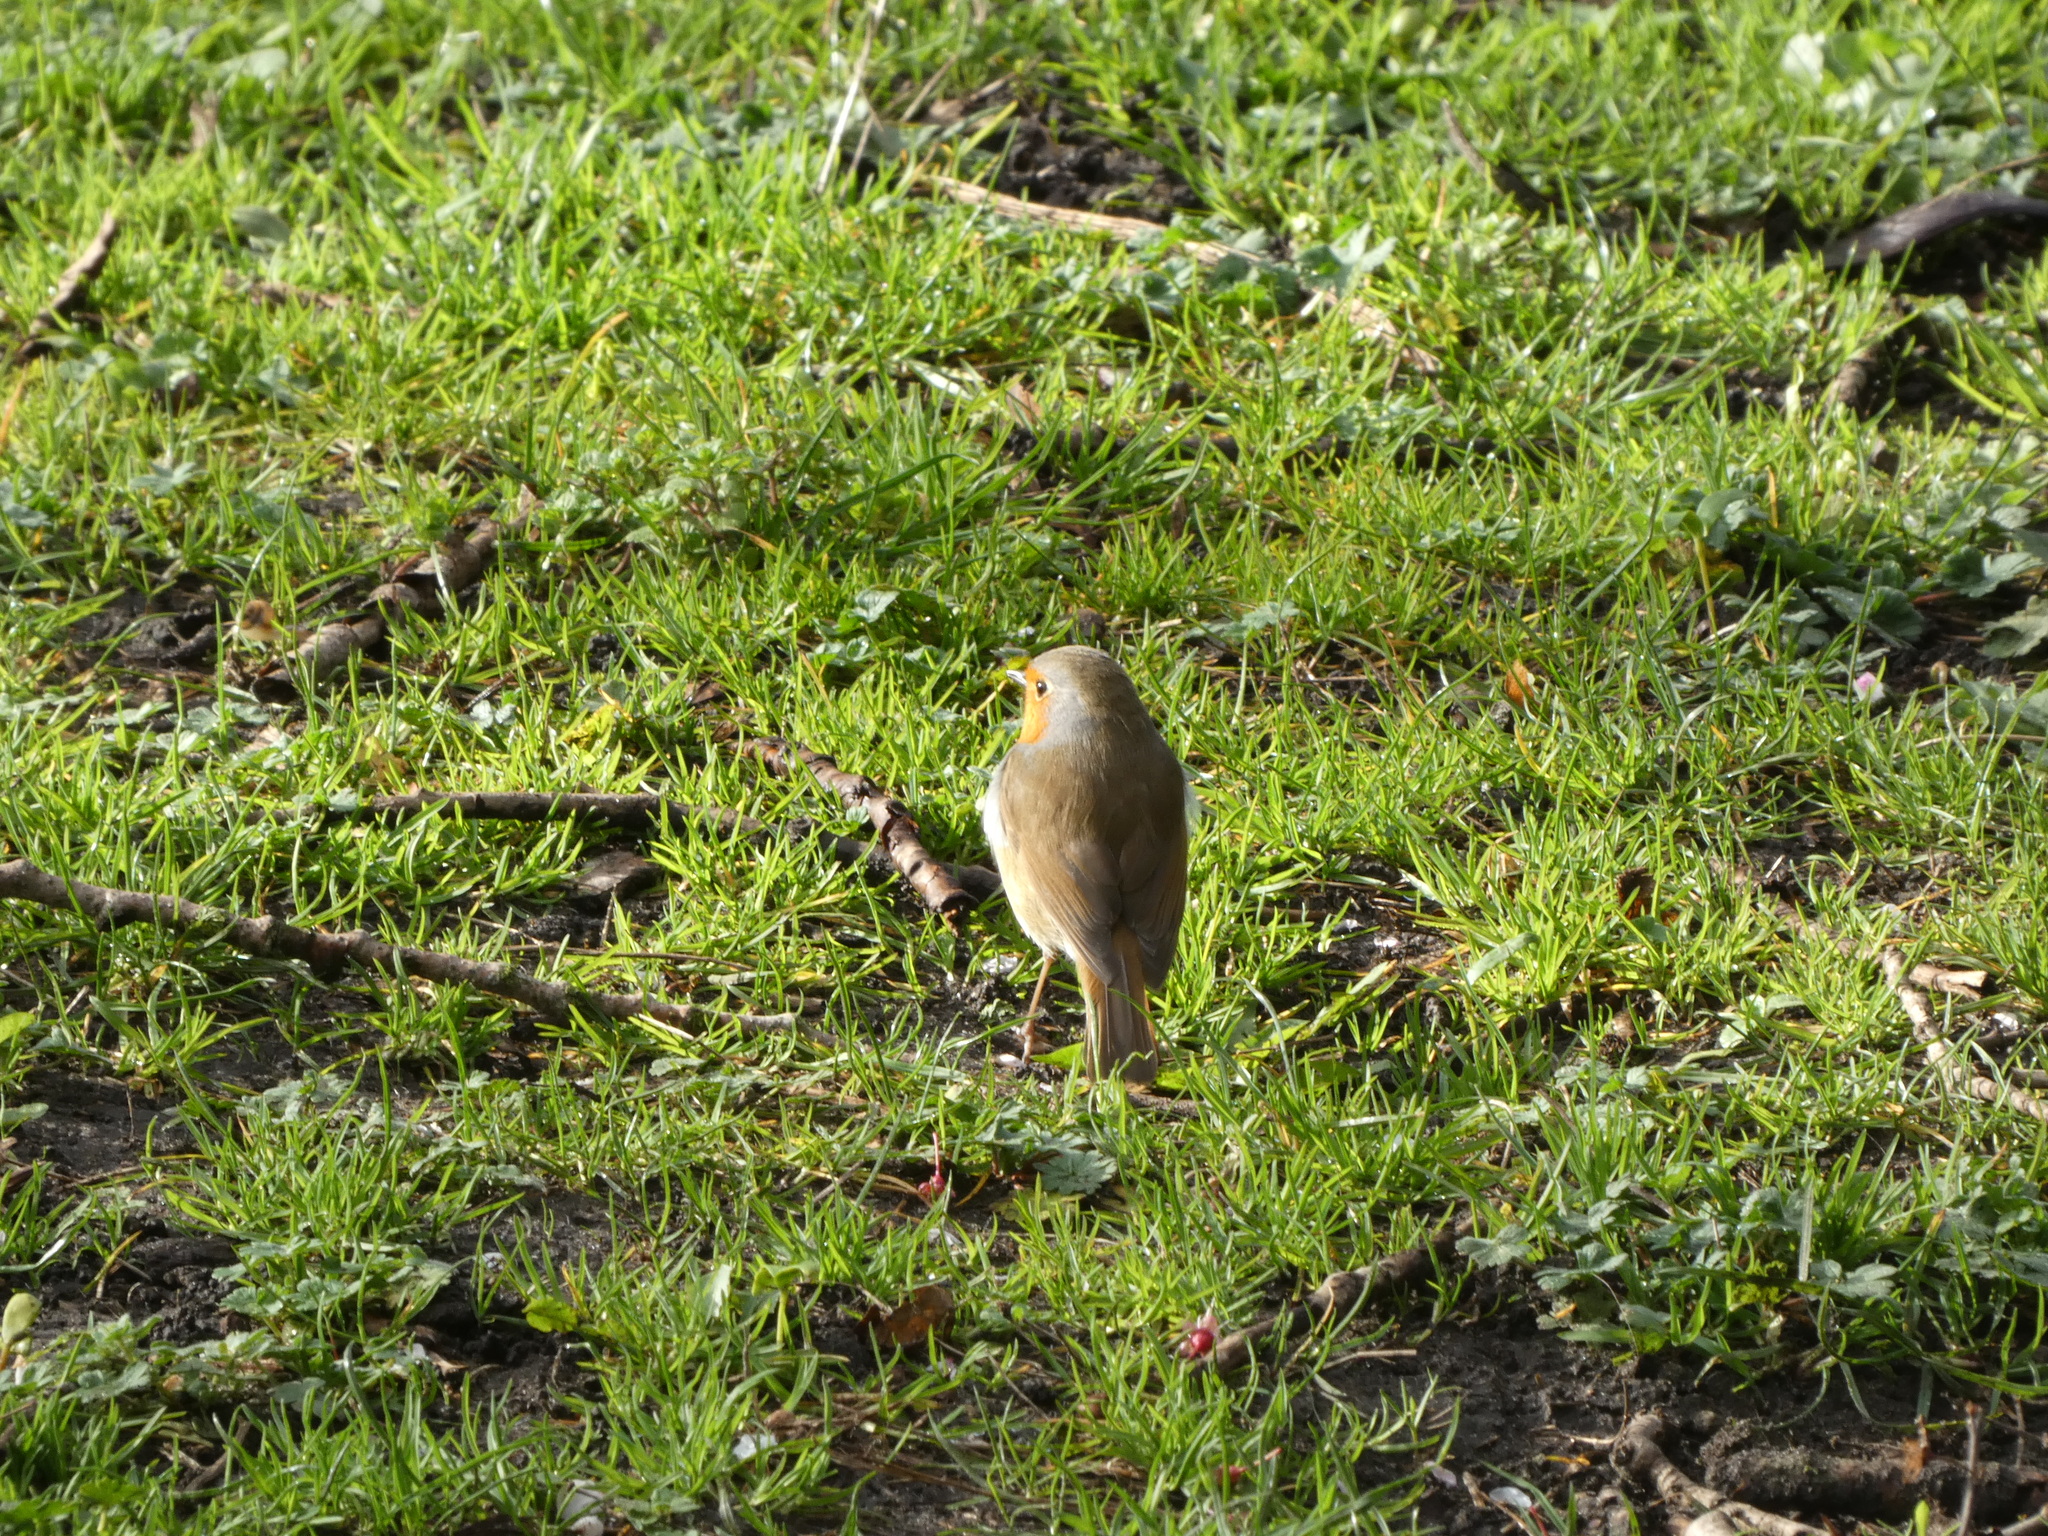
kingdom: Animalia
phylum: Chordata
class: Aves
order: Passeriformes
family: Muscicapidae
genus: Erithacus
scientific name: Erithacus rubecula
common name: European robin
